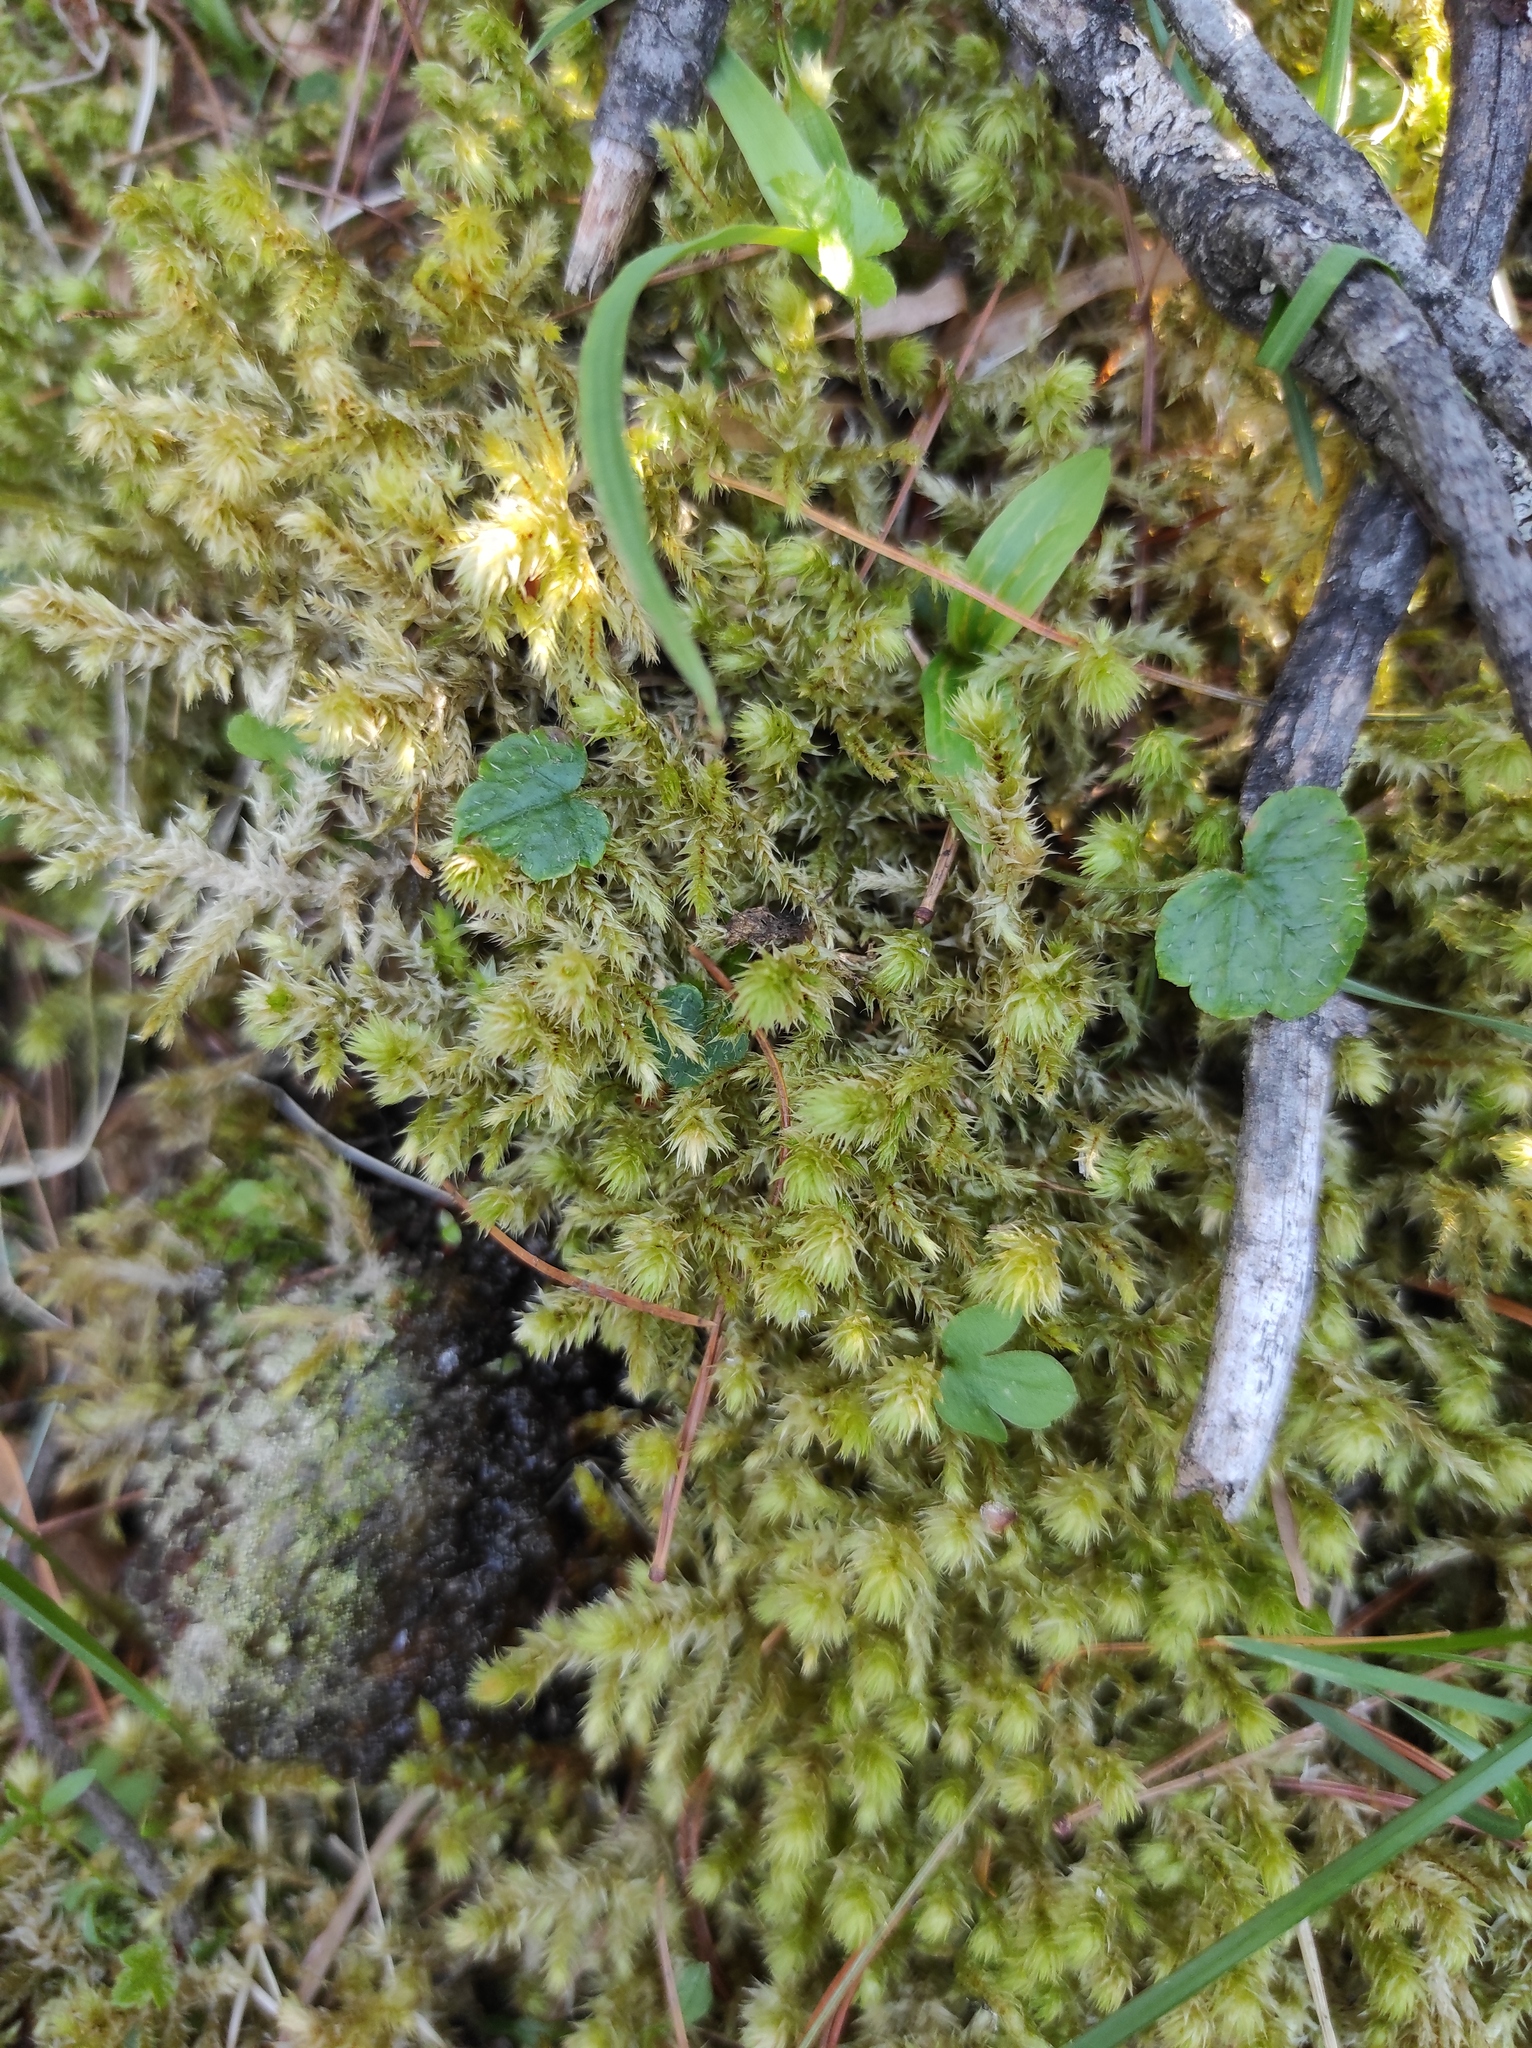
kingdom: Plantae
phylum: Tracheophyta
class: Magnoliopsida
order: Saxifragales
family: Saxifragaceae
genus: Mitella
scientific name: Mitella nuda
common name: Bare-stemmed bishop's-cap
